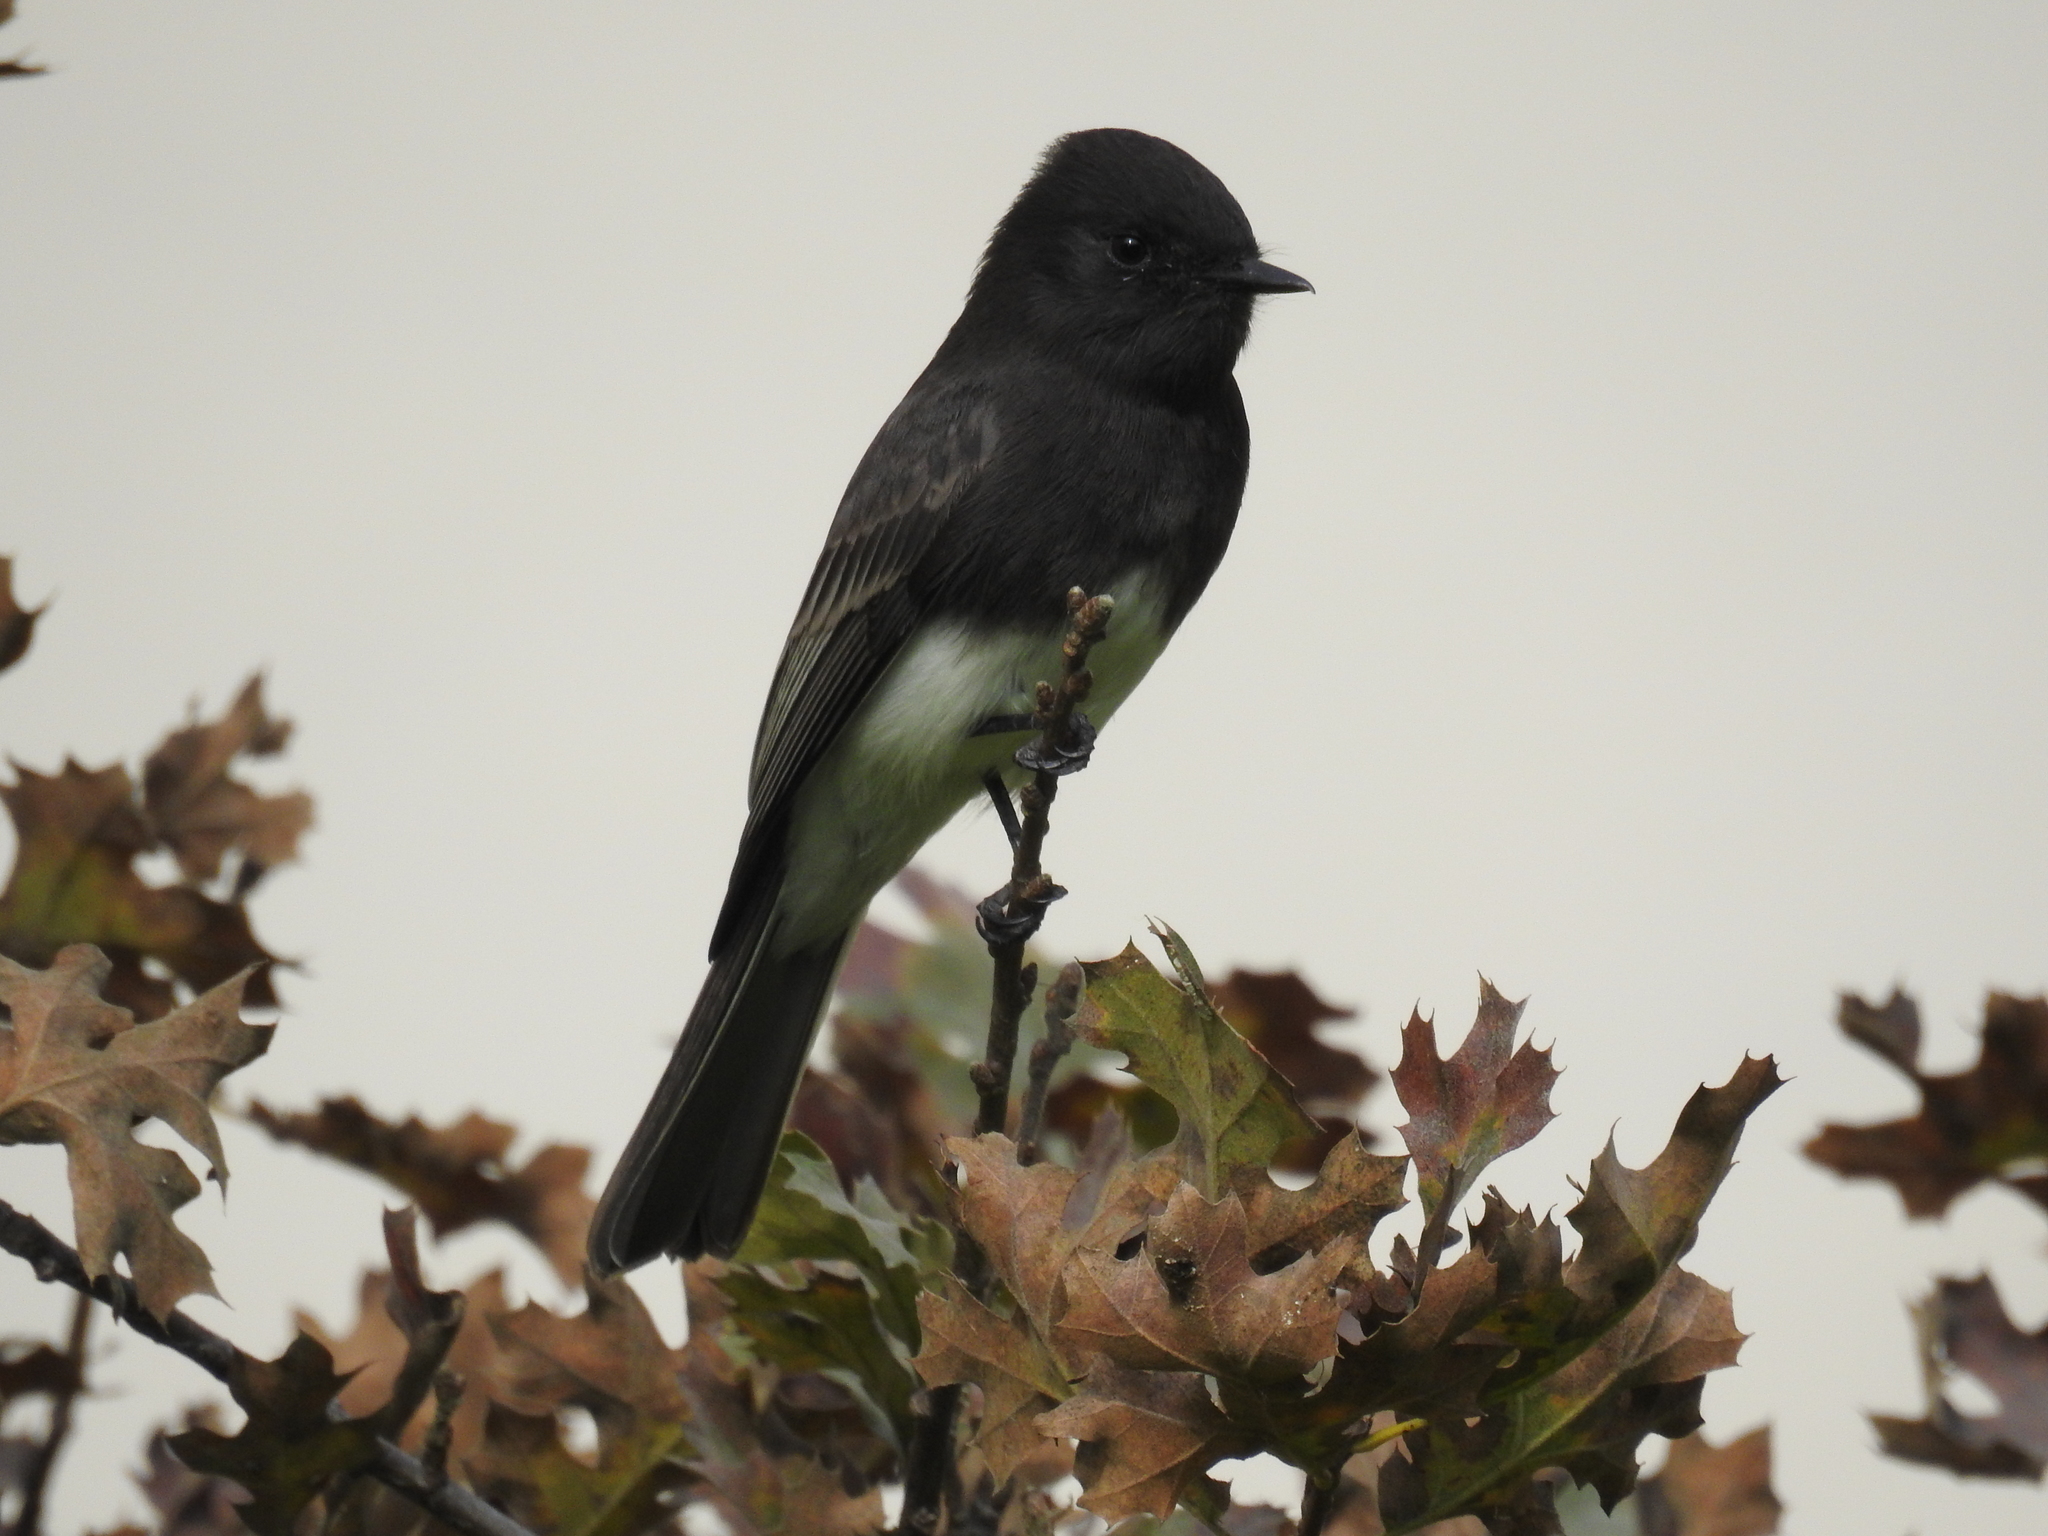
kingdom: Animalia
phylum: Chordata
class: Aves
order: Passeriformes
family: Tyrannidae
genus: Sayornis
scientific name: Sayornis nigricans
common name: Black phoebe
